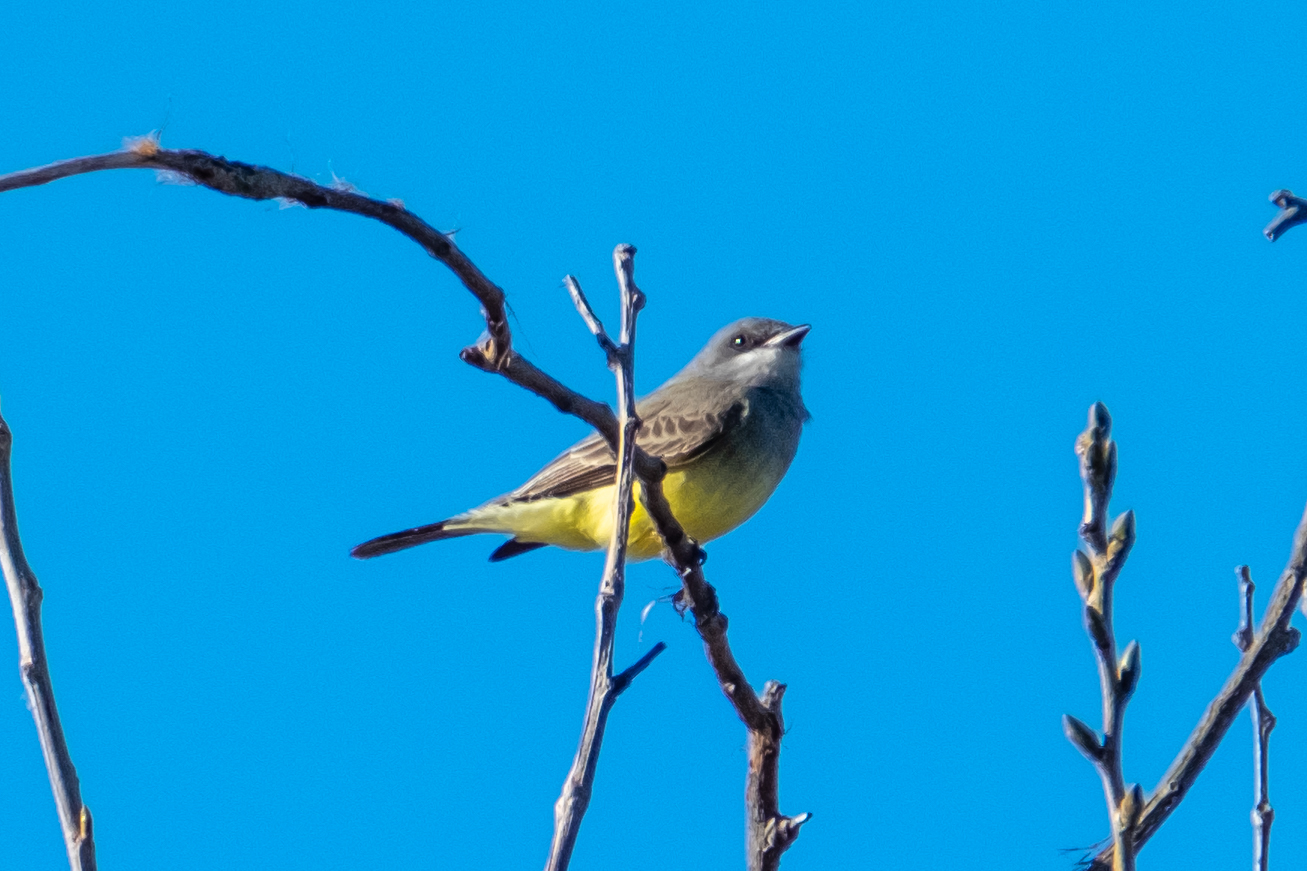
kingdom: Animalia
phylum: Chordata
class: Aves
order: Passeriformes
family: Tyrannidae
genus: Tyrannus
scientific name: Tyrannus vociferans
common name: Cassin's kingbird
